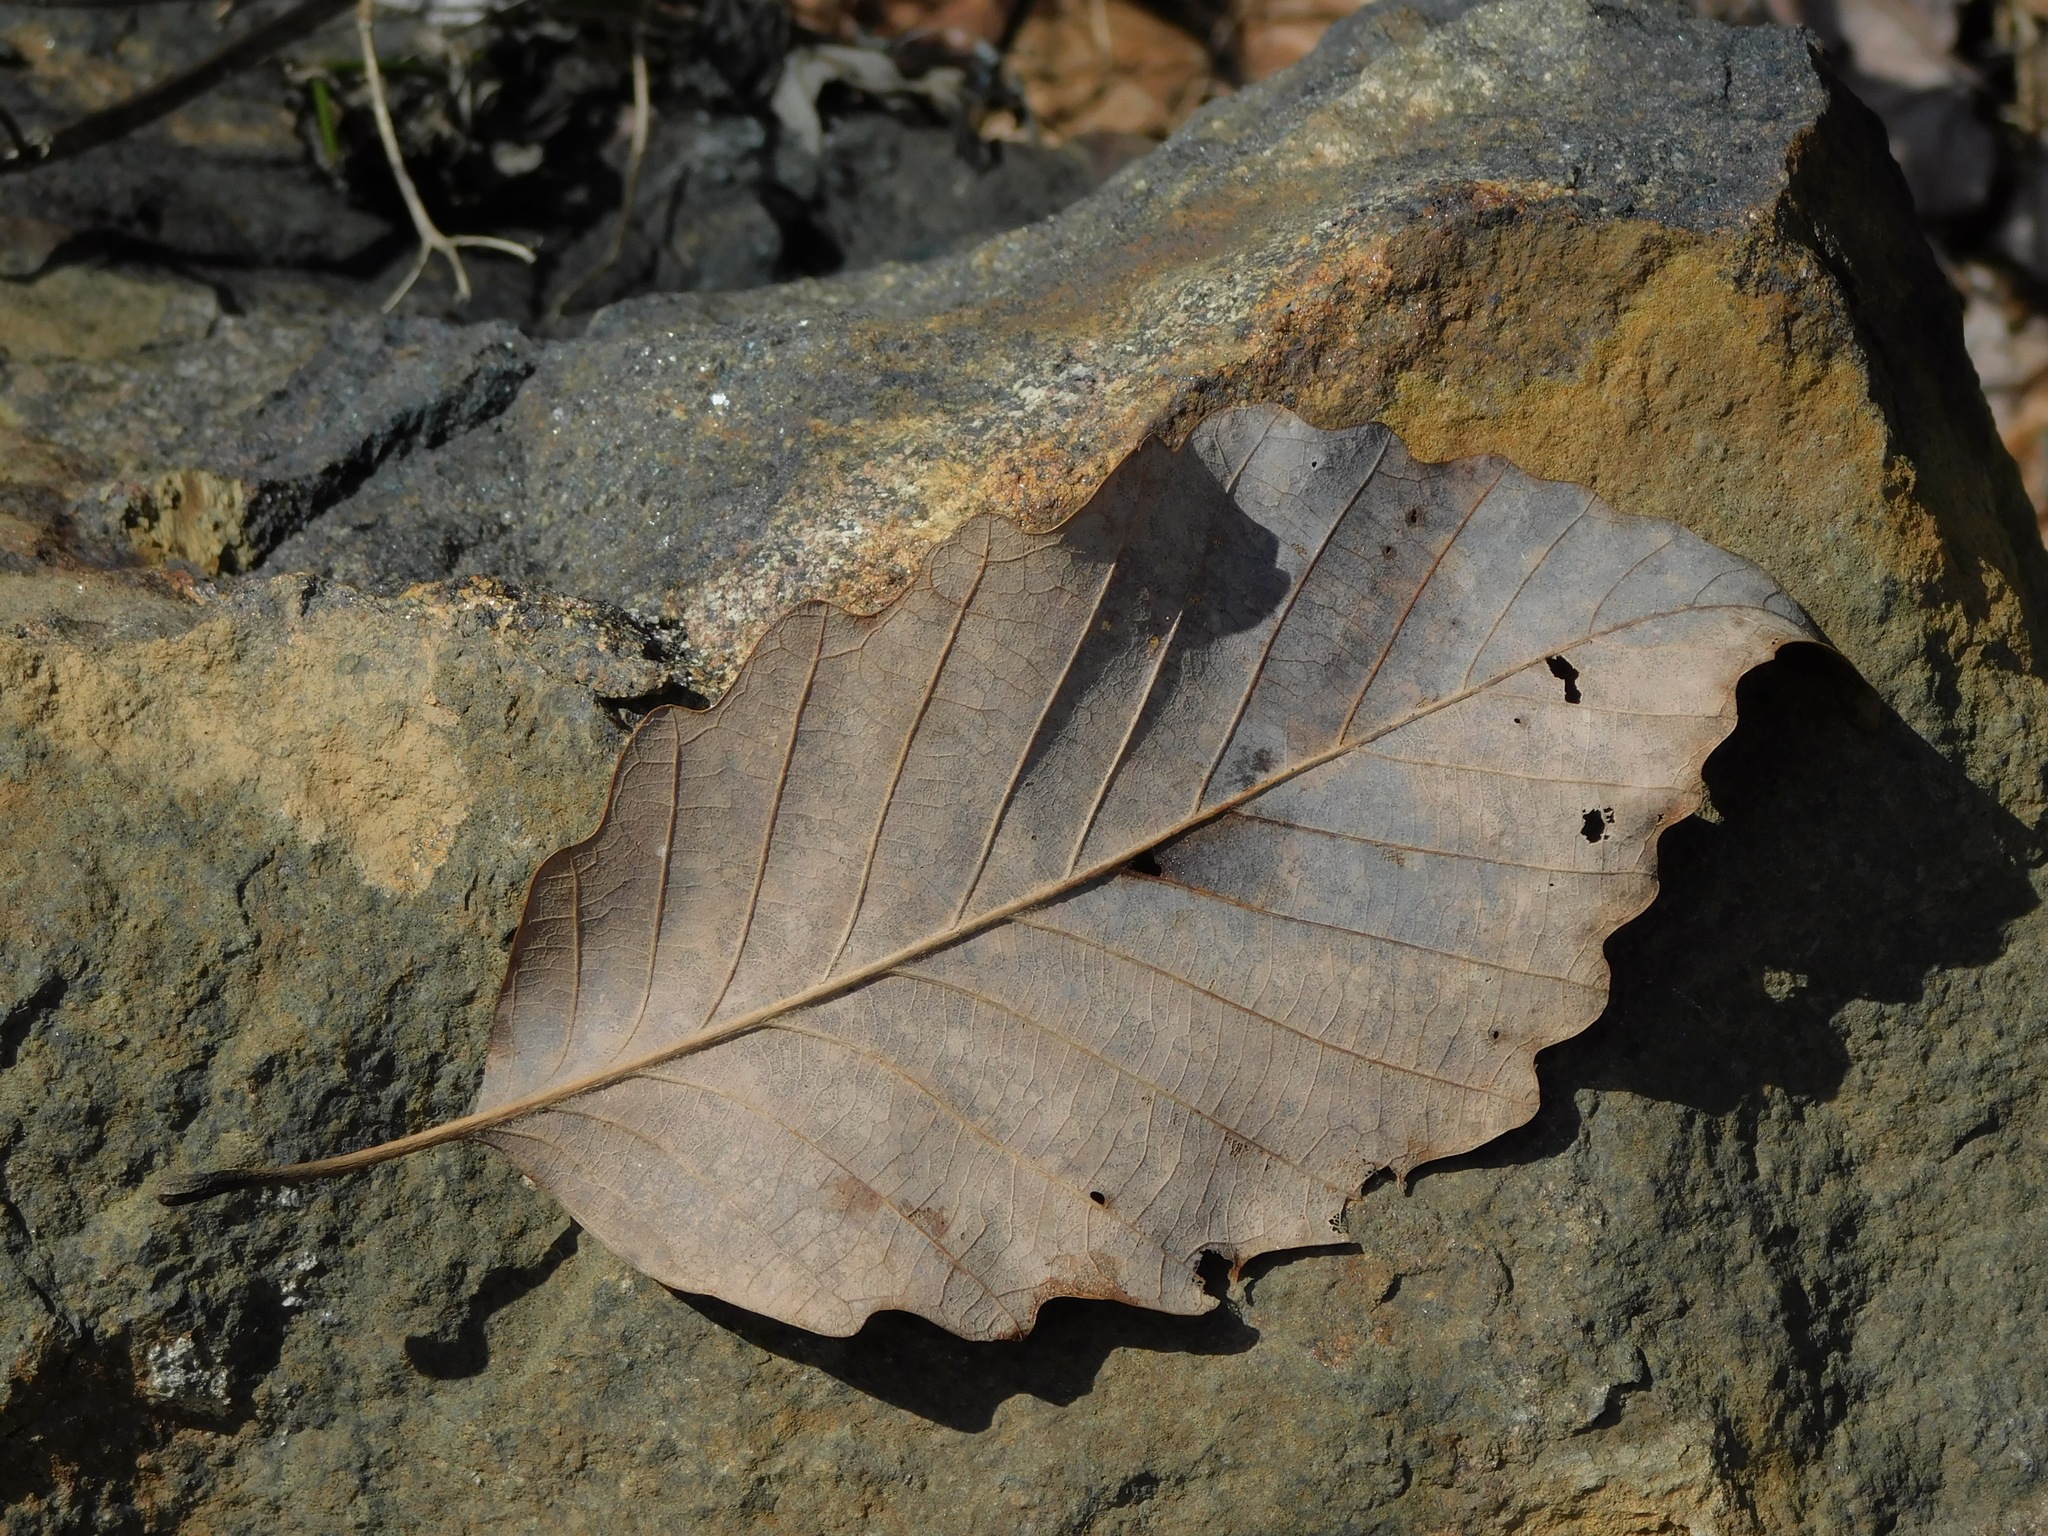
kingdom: Plantae
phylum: Tracheophyta
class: Magnoliopsida
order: Fagales
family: Fagaceae
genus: Quercus
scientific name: Quercus montana
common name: Chestnut oak
